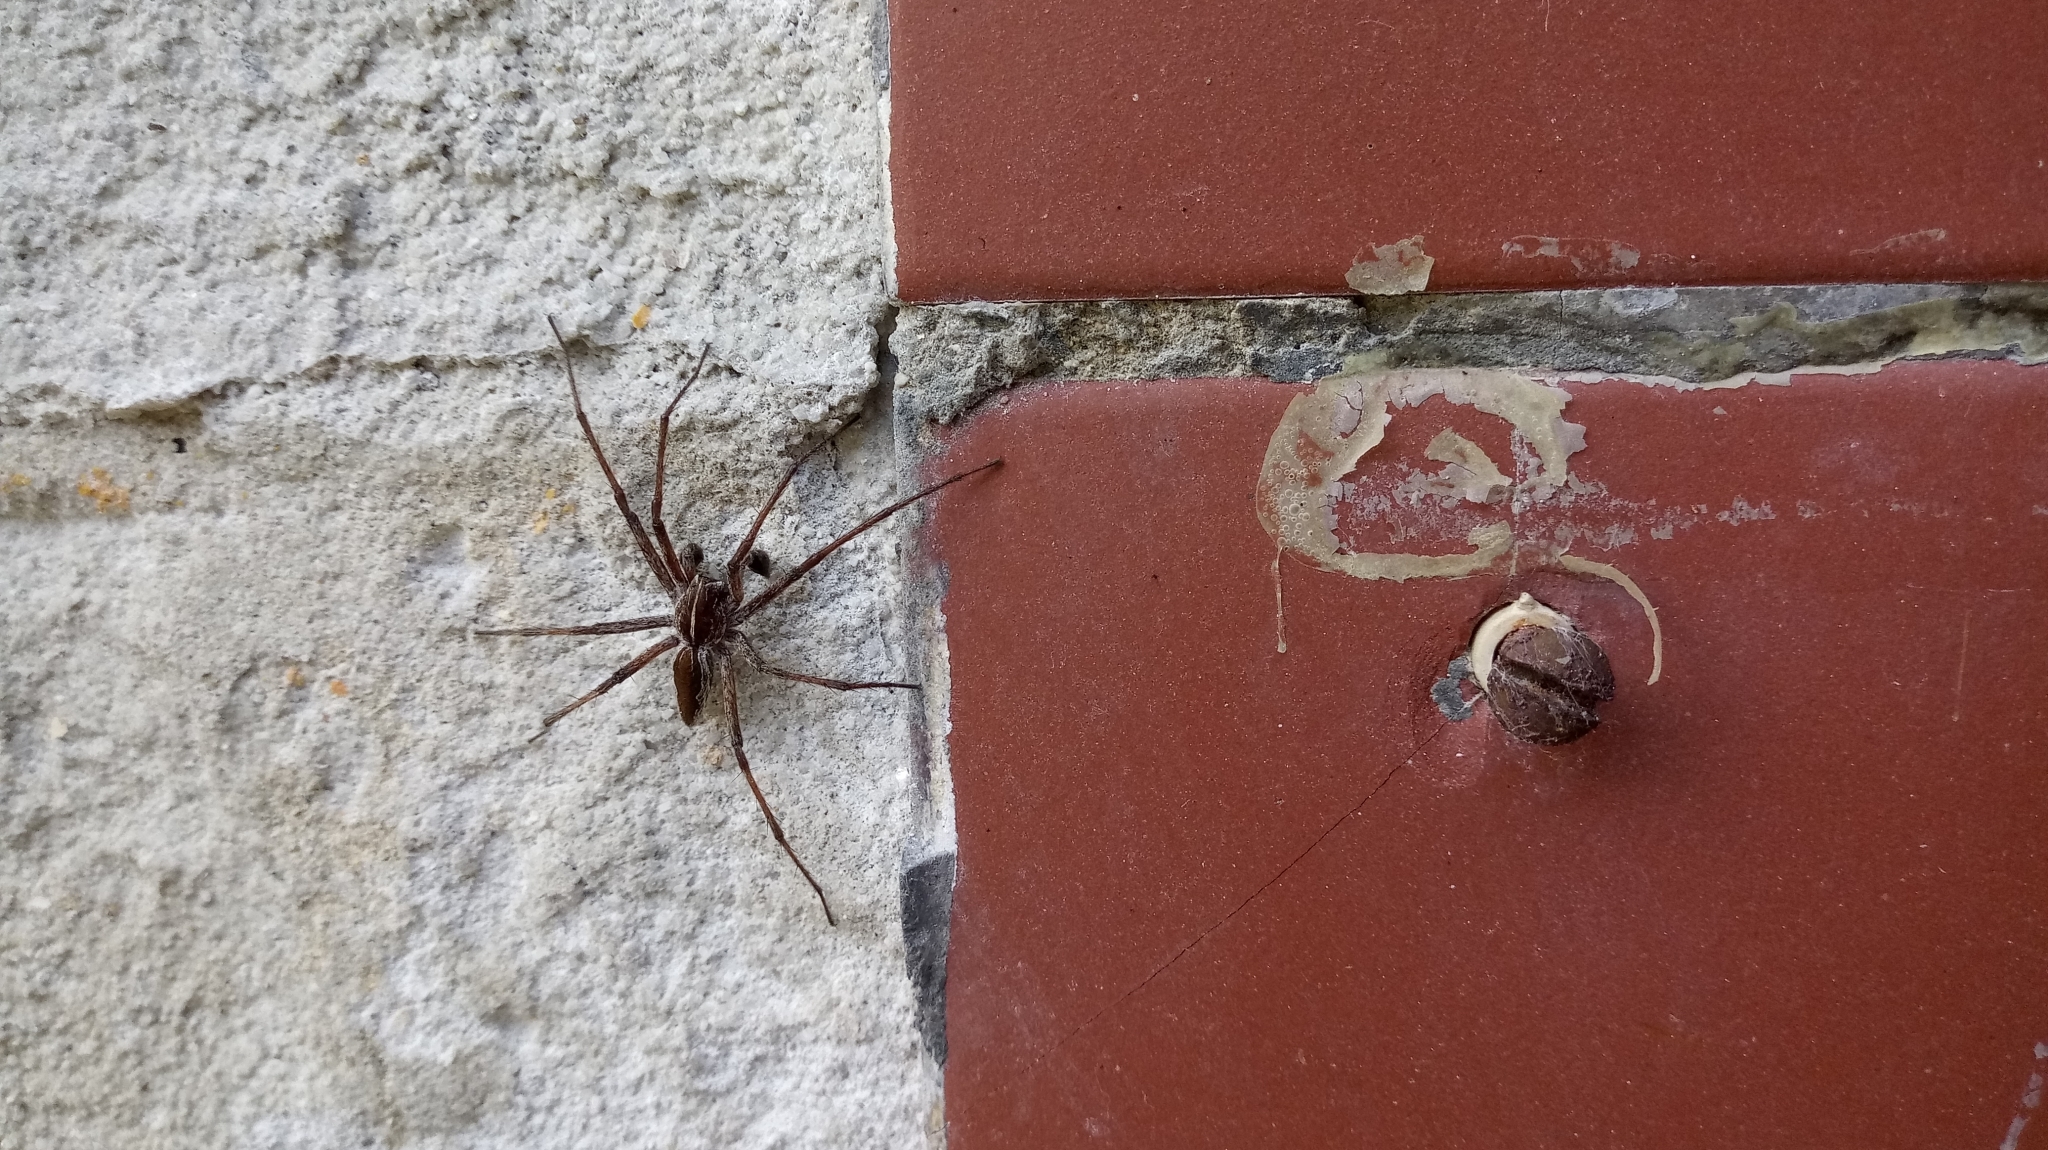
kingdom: Animalia
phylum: Arthropoda
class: Arachnida
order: Araneae
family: Pisauridae
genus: Pisaura
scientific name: Pisaura mirabilis
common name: Tent spider
